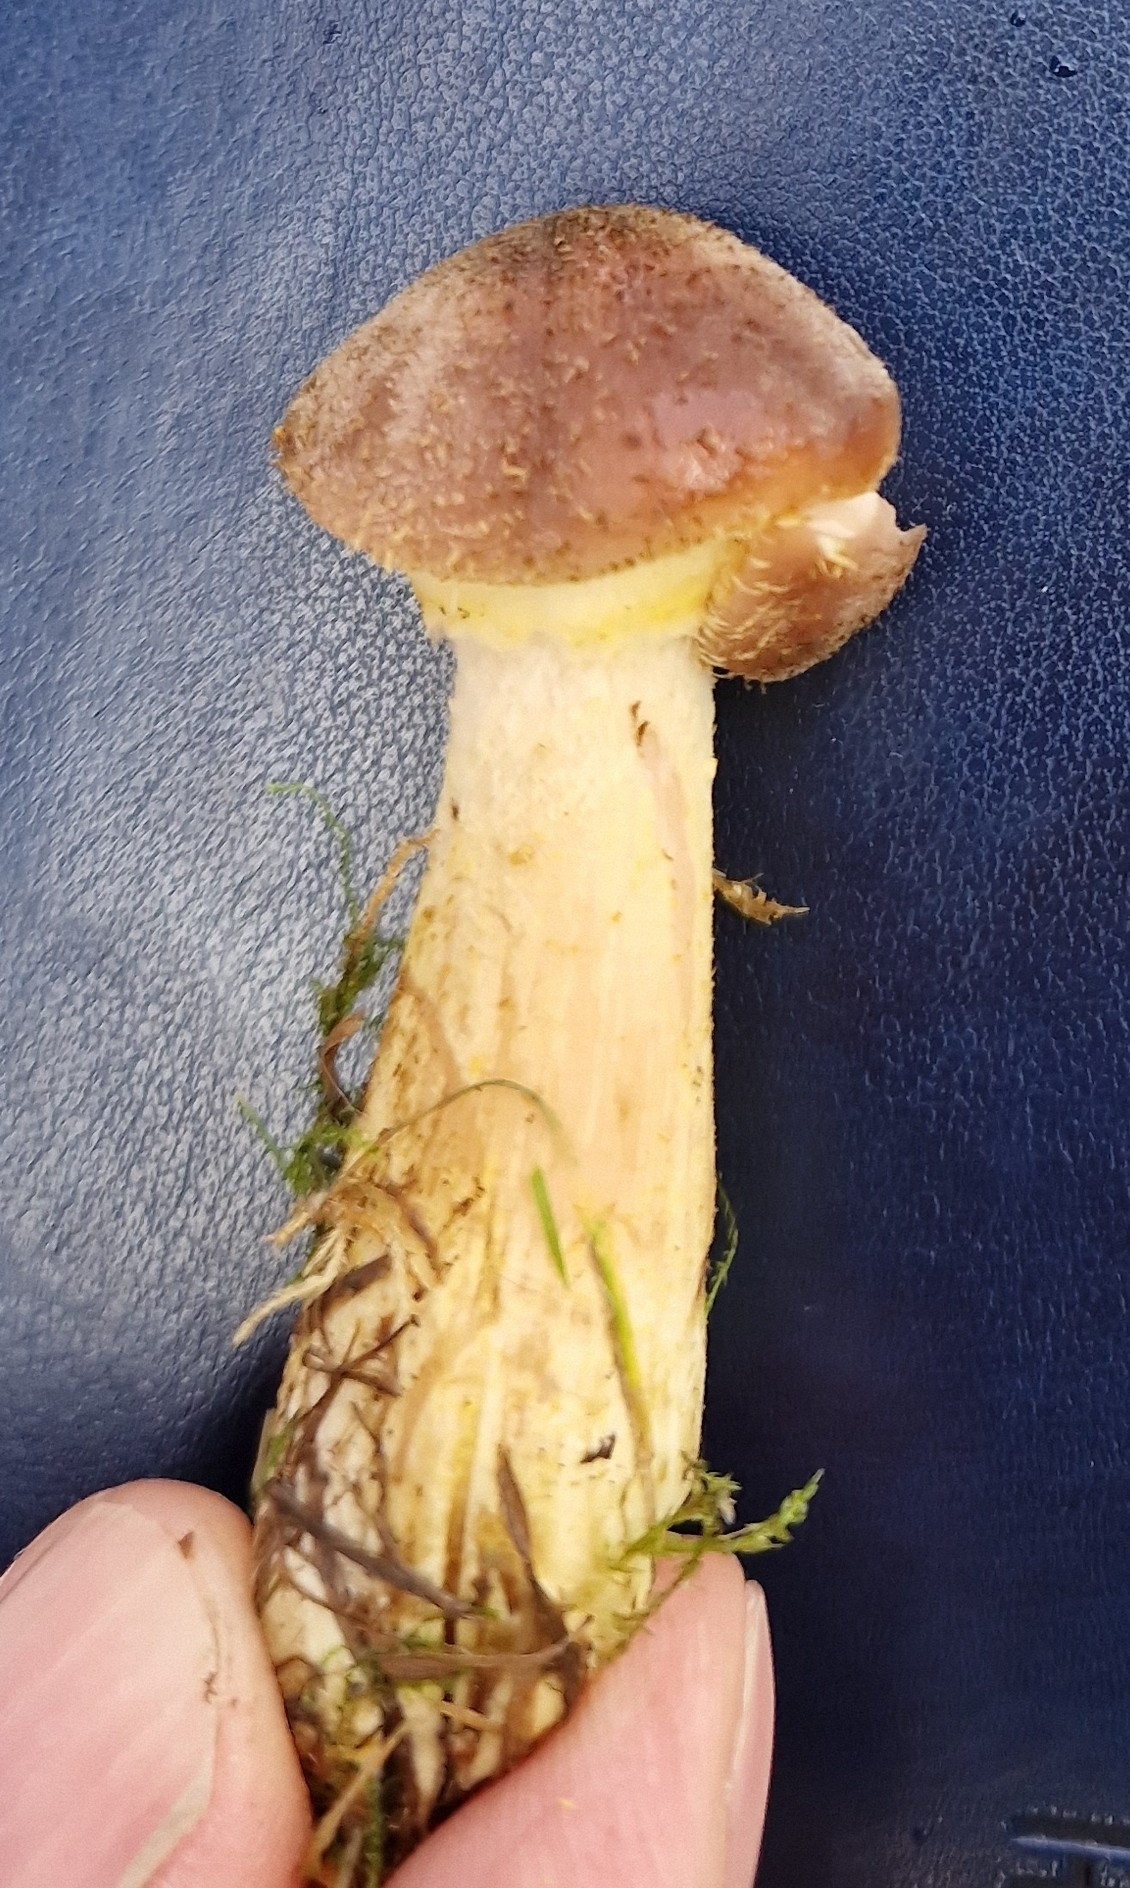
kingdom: Fungi
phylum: Basidiomycota
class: Agaricomycetes
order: Agaricales
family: Physalacriaceae
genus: Armillaria
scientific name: Armillaria gallica
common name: Bulbous honey fungus
